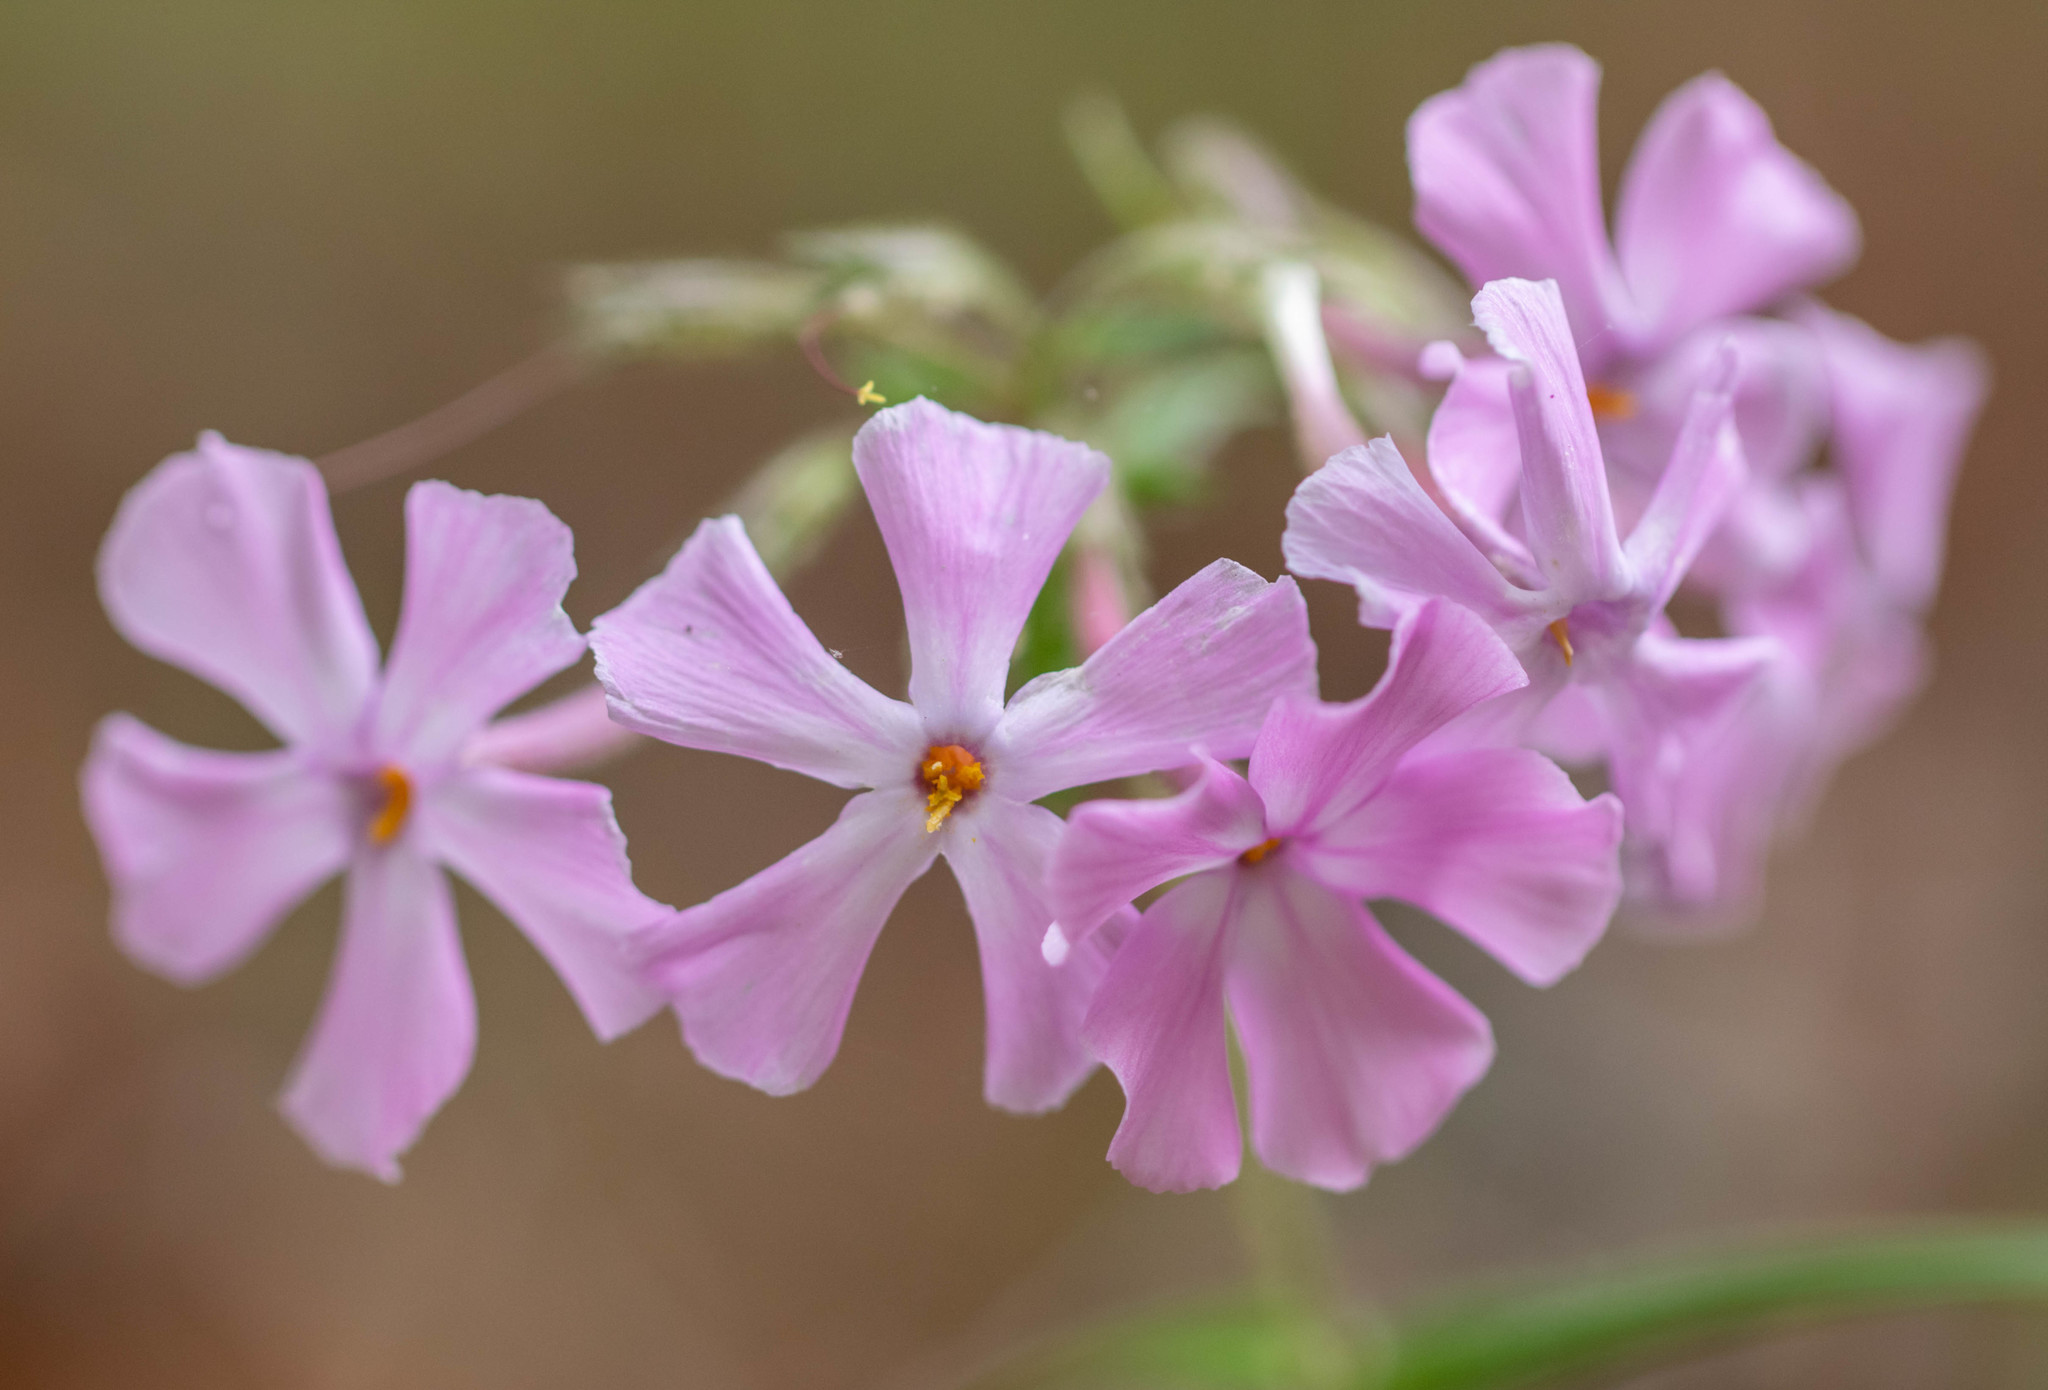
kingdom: Plantae
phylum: Tracheophyta
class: Magnoliopsida
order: Ericales
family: Polemoniaceae
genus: Phlox
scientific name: Phlox buckleyi
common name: Shale-barren phlox
